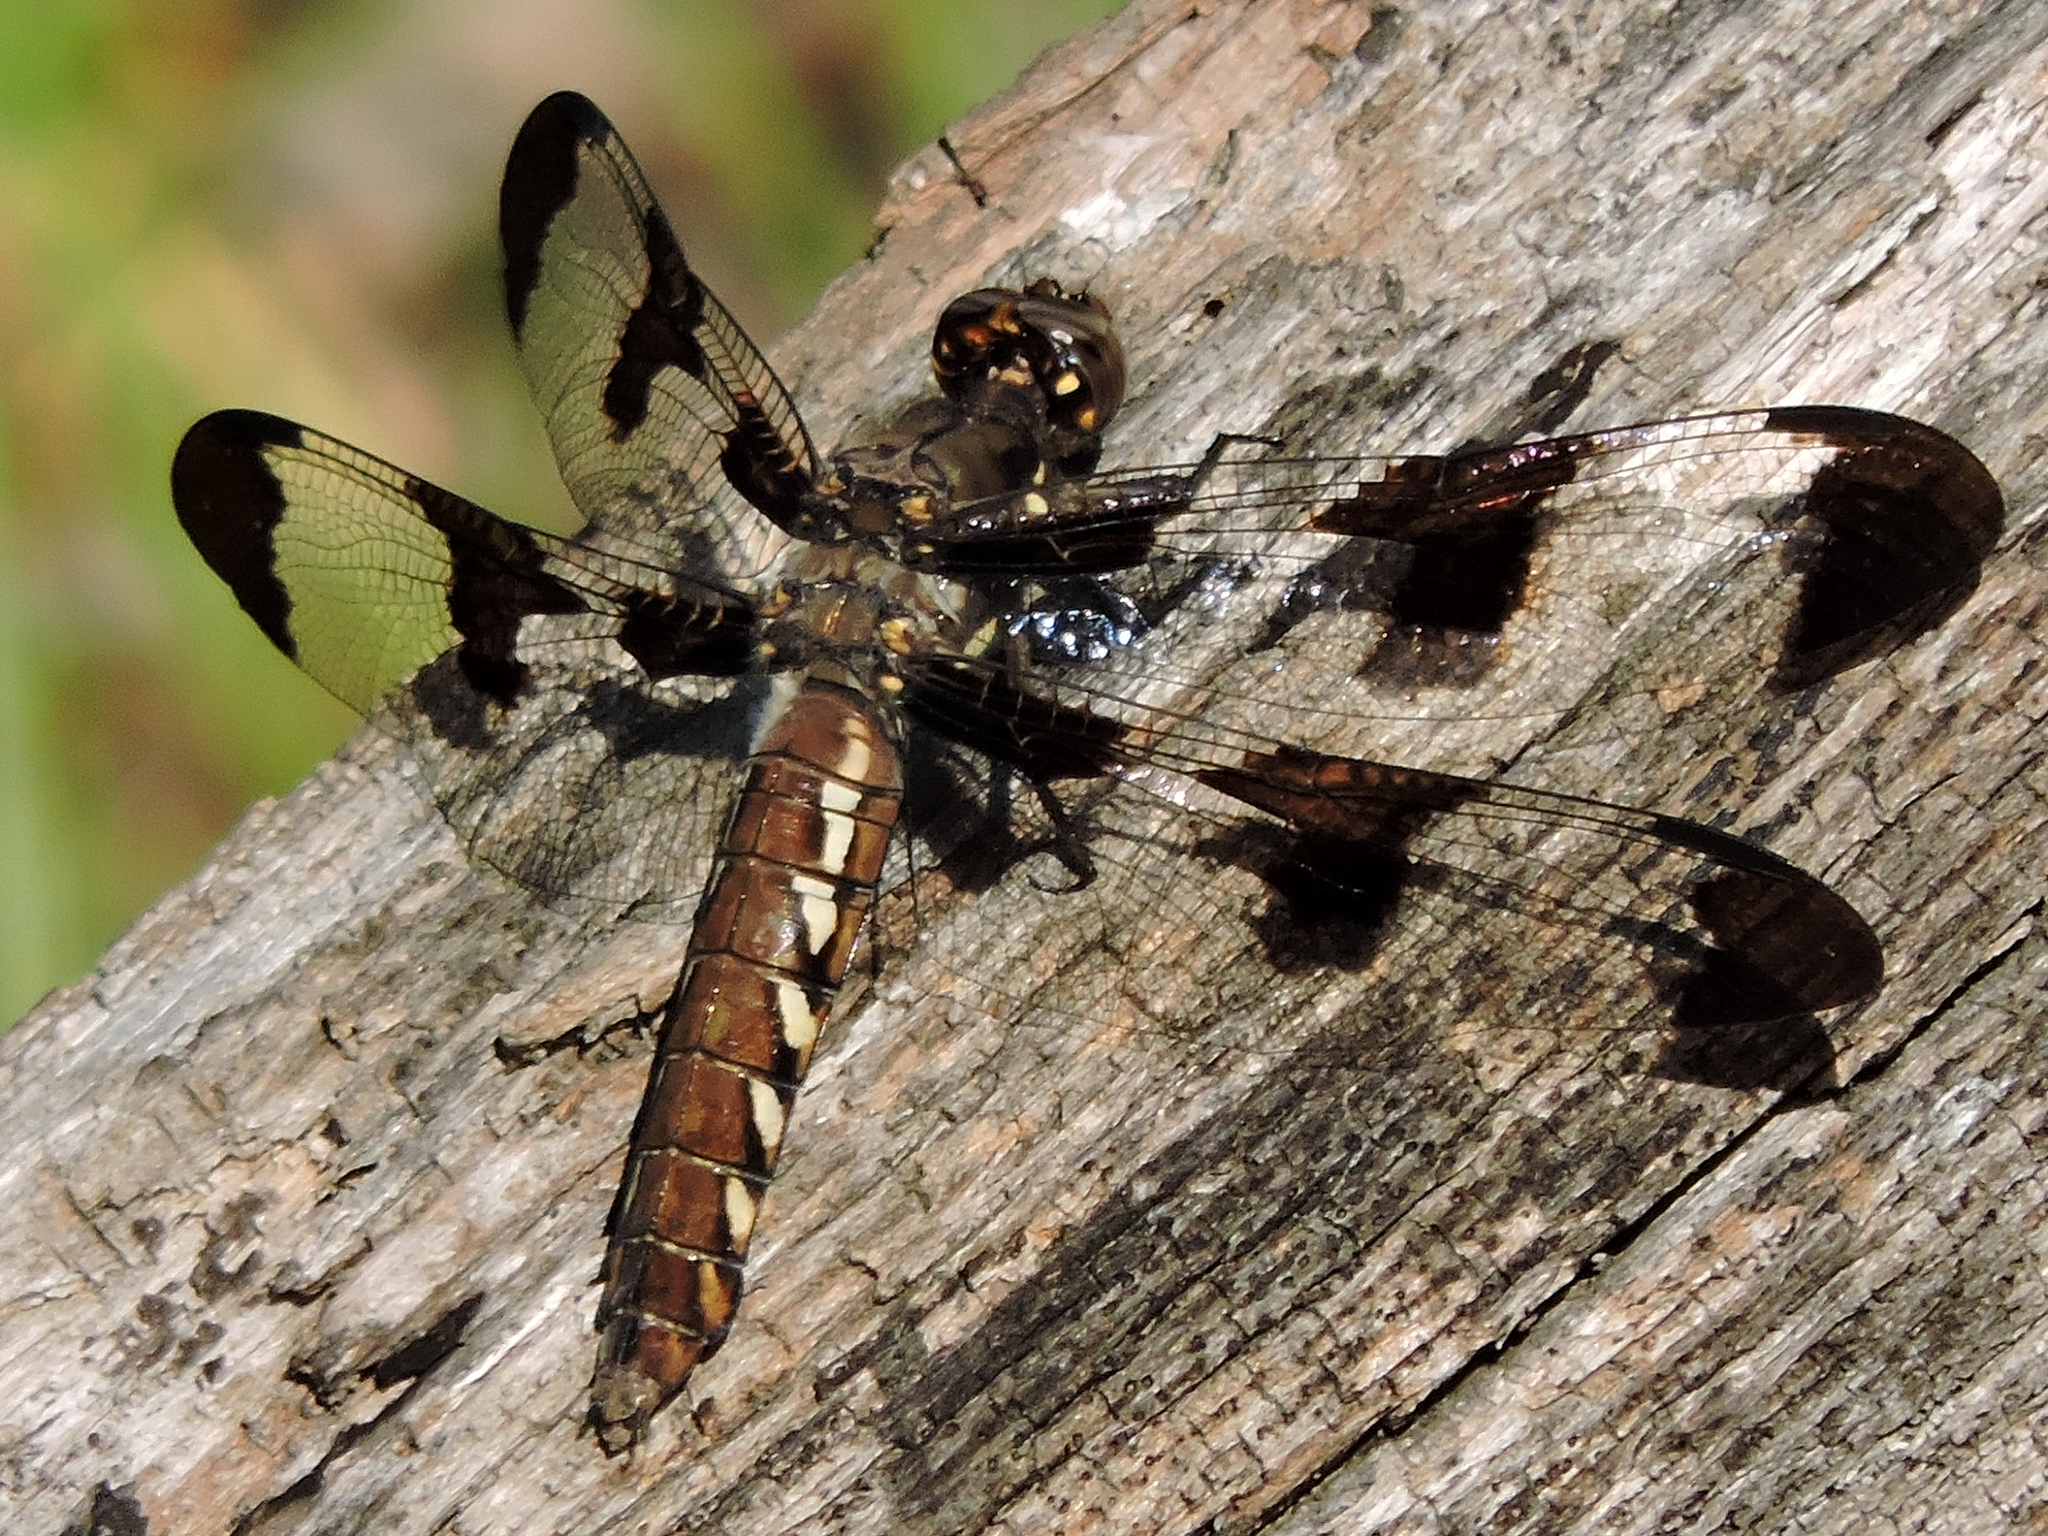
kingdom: Animalia
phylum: Arthropoda
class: Insecta
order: Odonata
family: Libellulidae
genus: Plathemis
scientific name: Plathemis lydia
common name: Common whitetail
